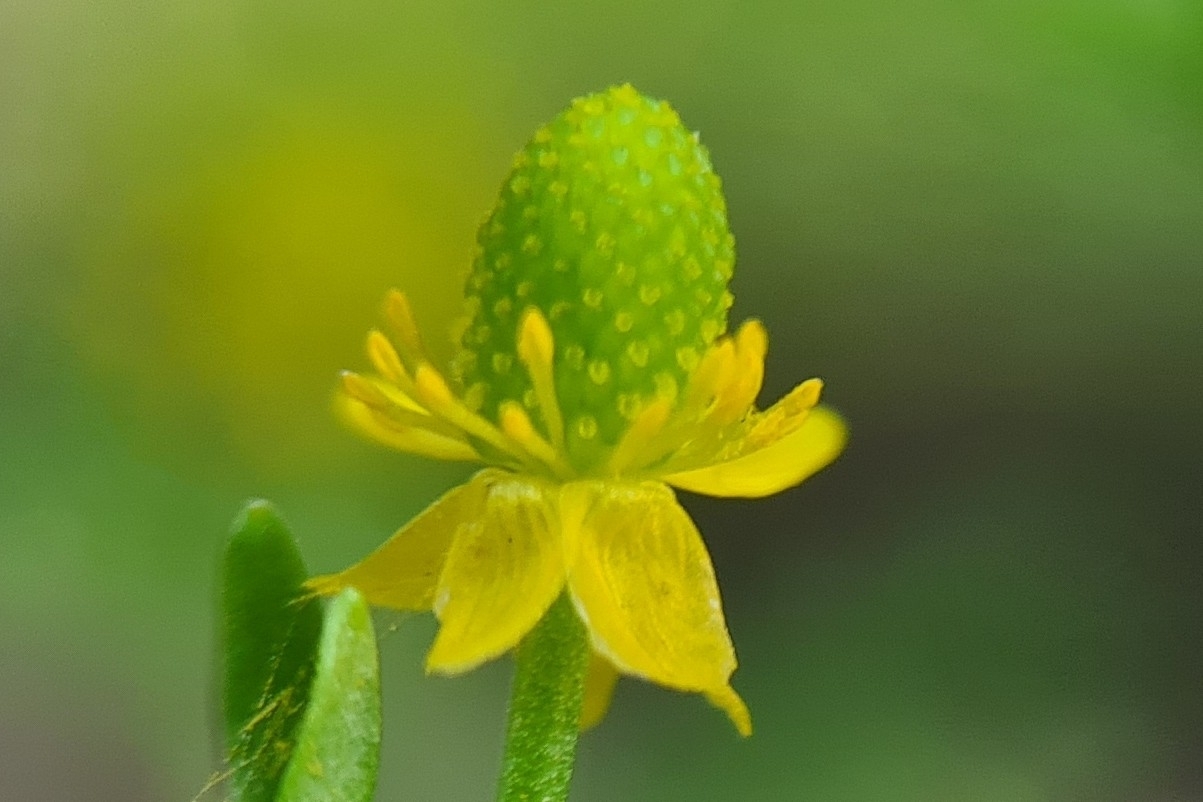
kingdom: Plantae
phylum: Tracheophyta
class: Magnoliopsida
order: Ranunculales
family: Ranunculaceae
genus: Ranunculus
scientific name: Ranunculus sceleratus
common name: Celery-leaved buttercup
